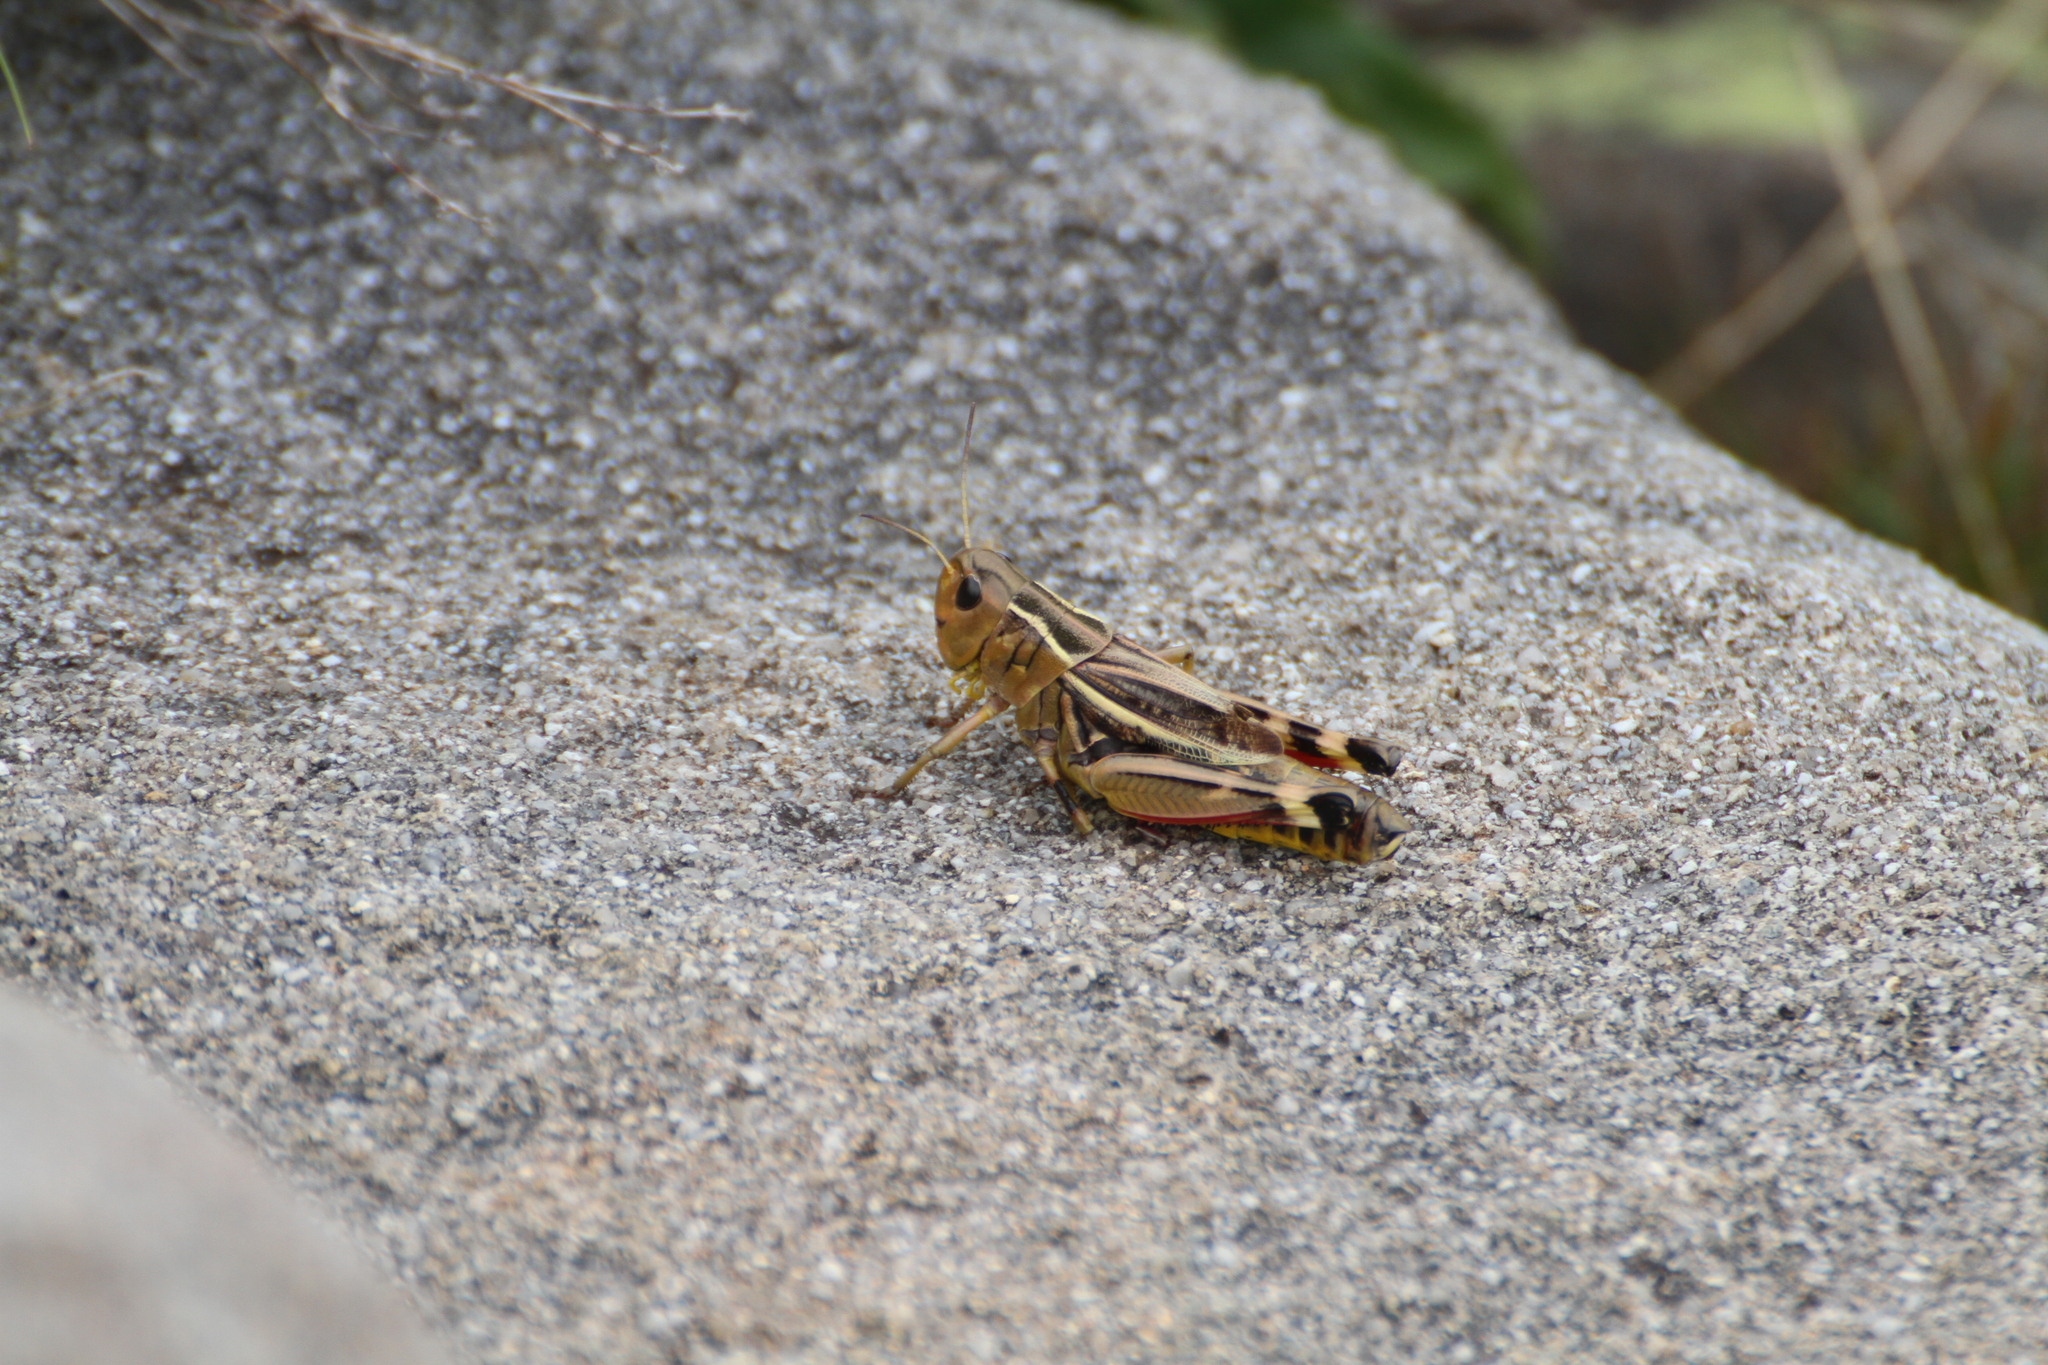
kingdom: Animalia
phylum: Arthropoda
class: Insecta
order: Orthoptera
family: Acrididae
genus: Arcyptera
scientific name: Arcyptera fusca
